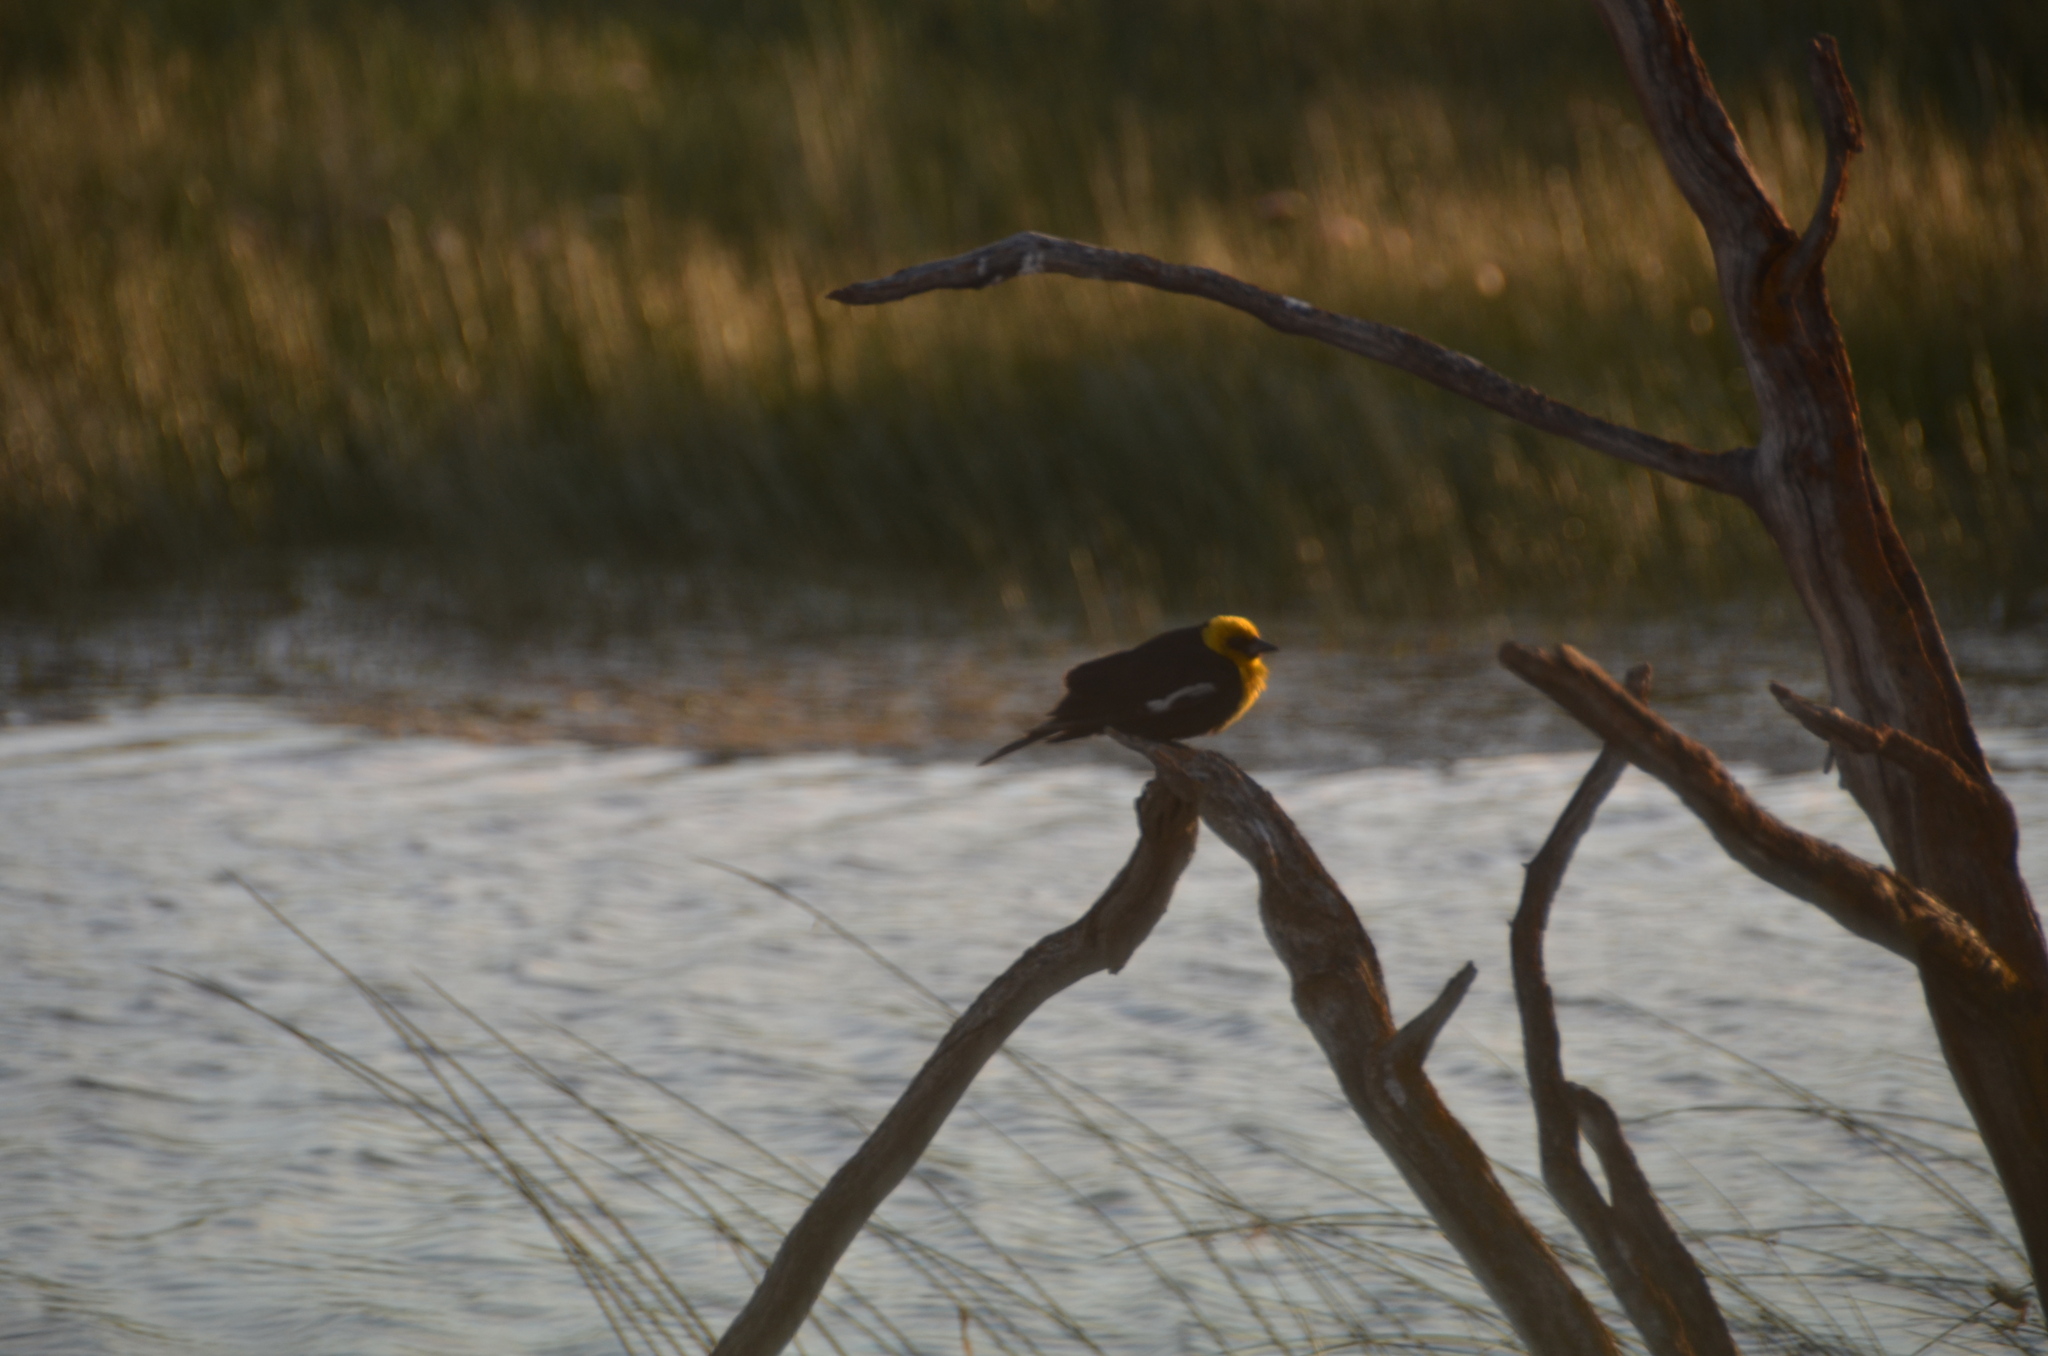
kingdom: Animalia
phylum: Chordata
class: Aves
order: Passeriformes
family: Icteridae
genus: Xanthocephalus
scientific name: Xanthocephalus xanthocephalus
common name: Yellow-headed blackbird
